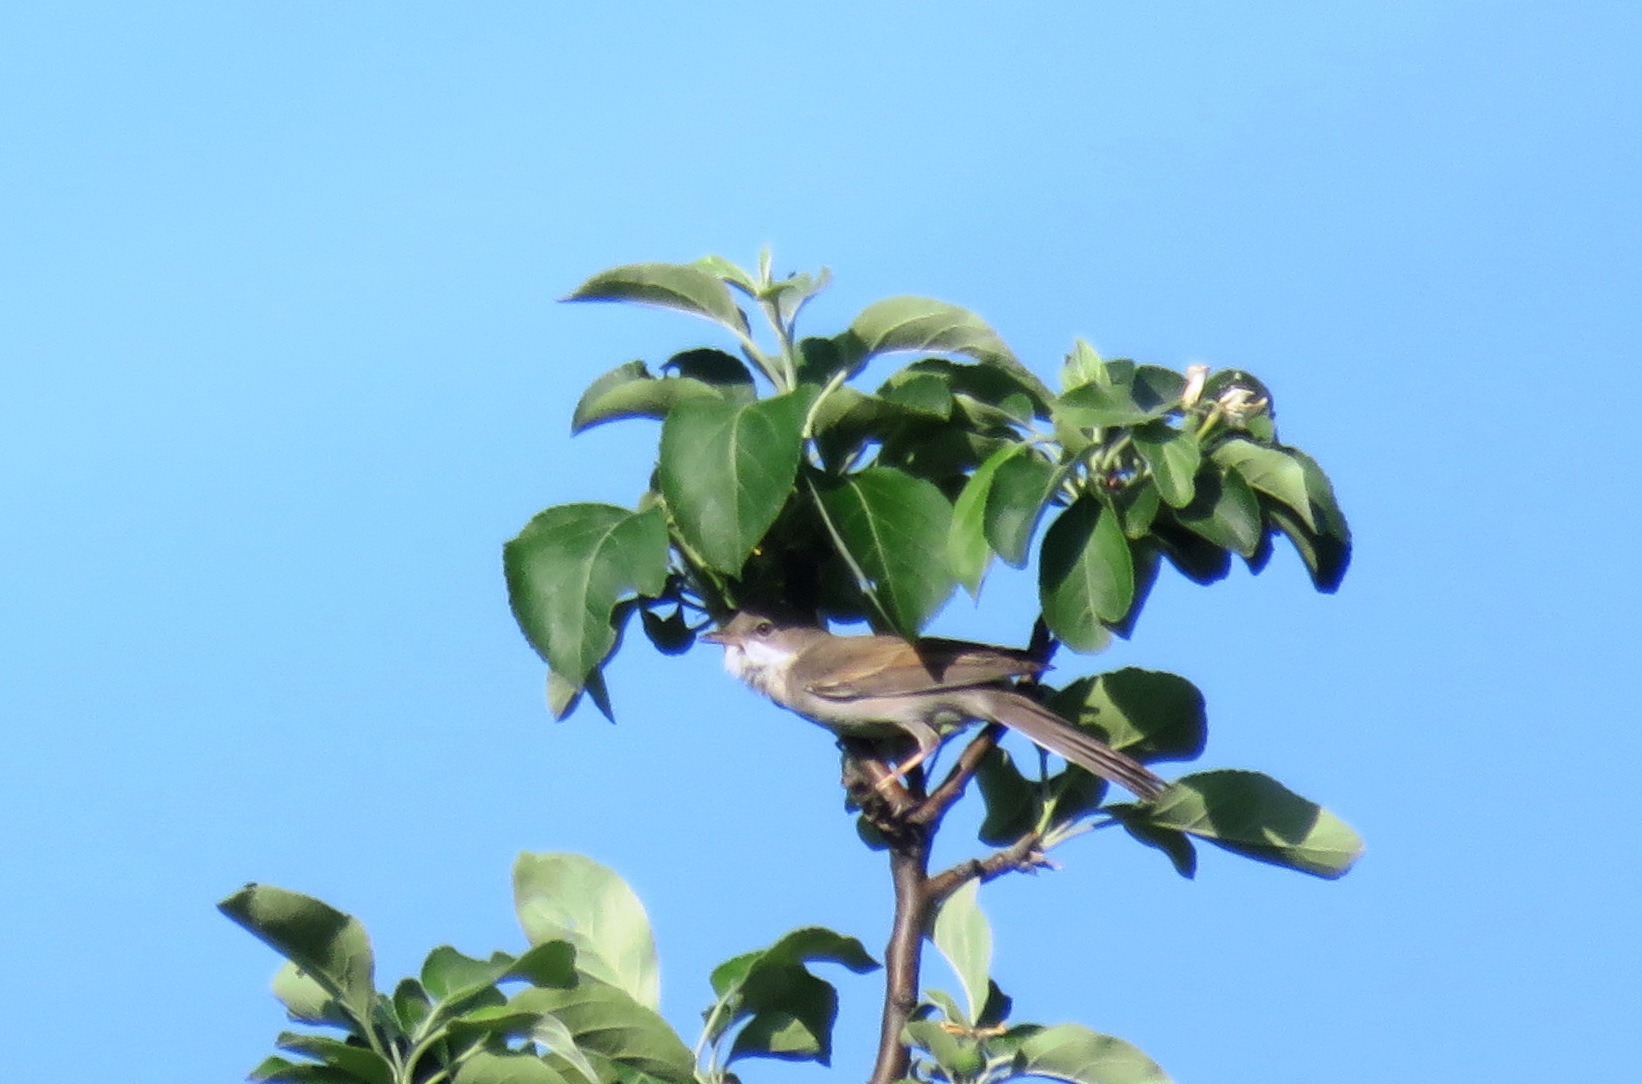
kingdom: Animalia
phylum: Chordata
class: Aves
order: Passeriformes
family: Sylviidae
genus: Sylvia
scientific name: Sylvia communis
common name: Common whitethroat
